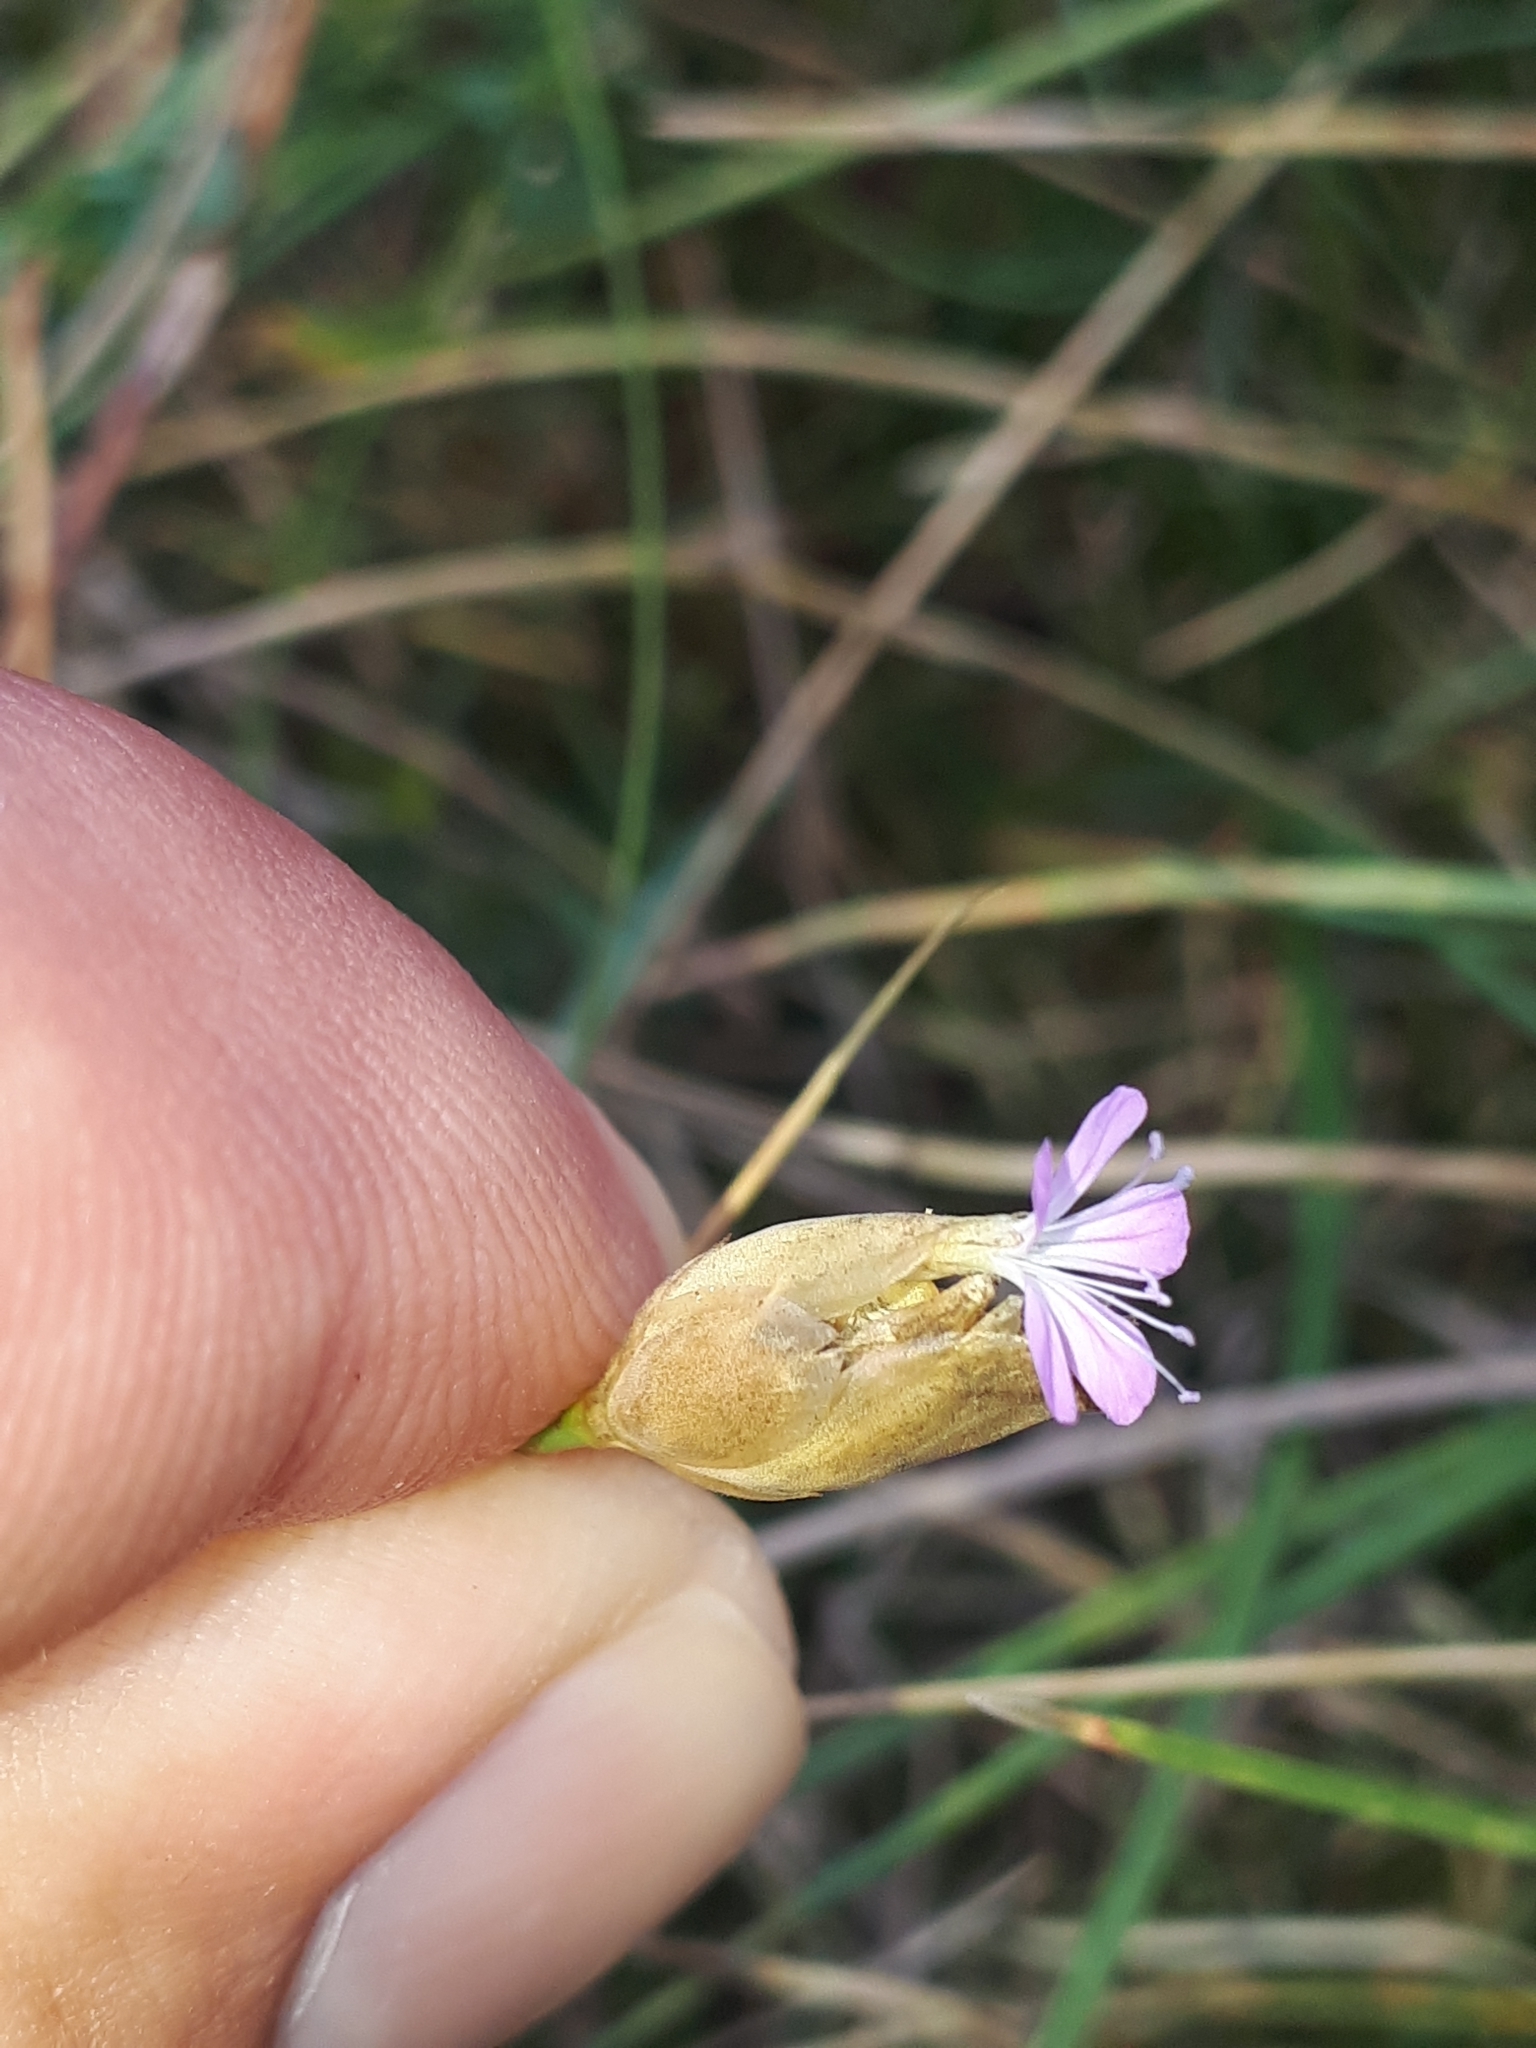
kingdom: Plantae
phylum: Tracheophyta
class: Magnoliopsida
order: Caryophyllales
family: Caryophyllaceae
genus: Petrorhagia
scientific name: Petrorhagia prolifera
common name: Proliferous pink
